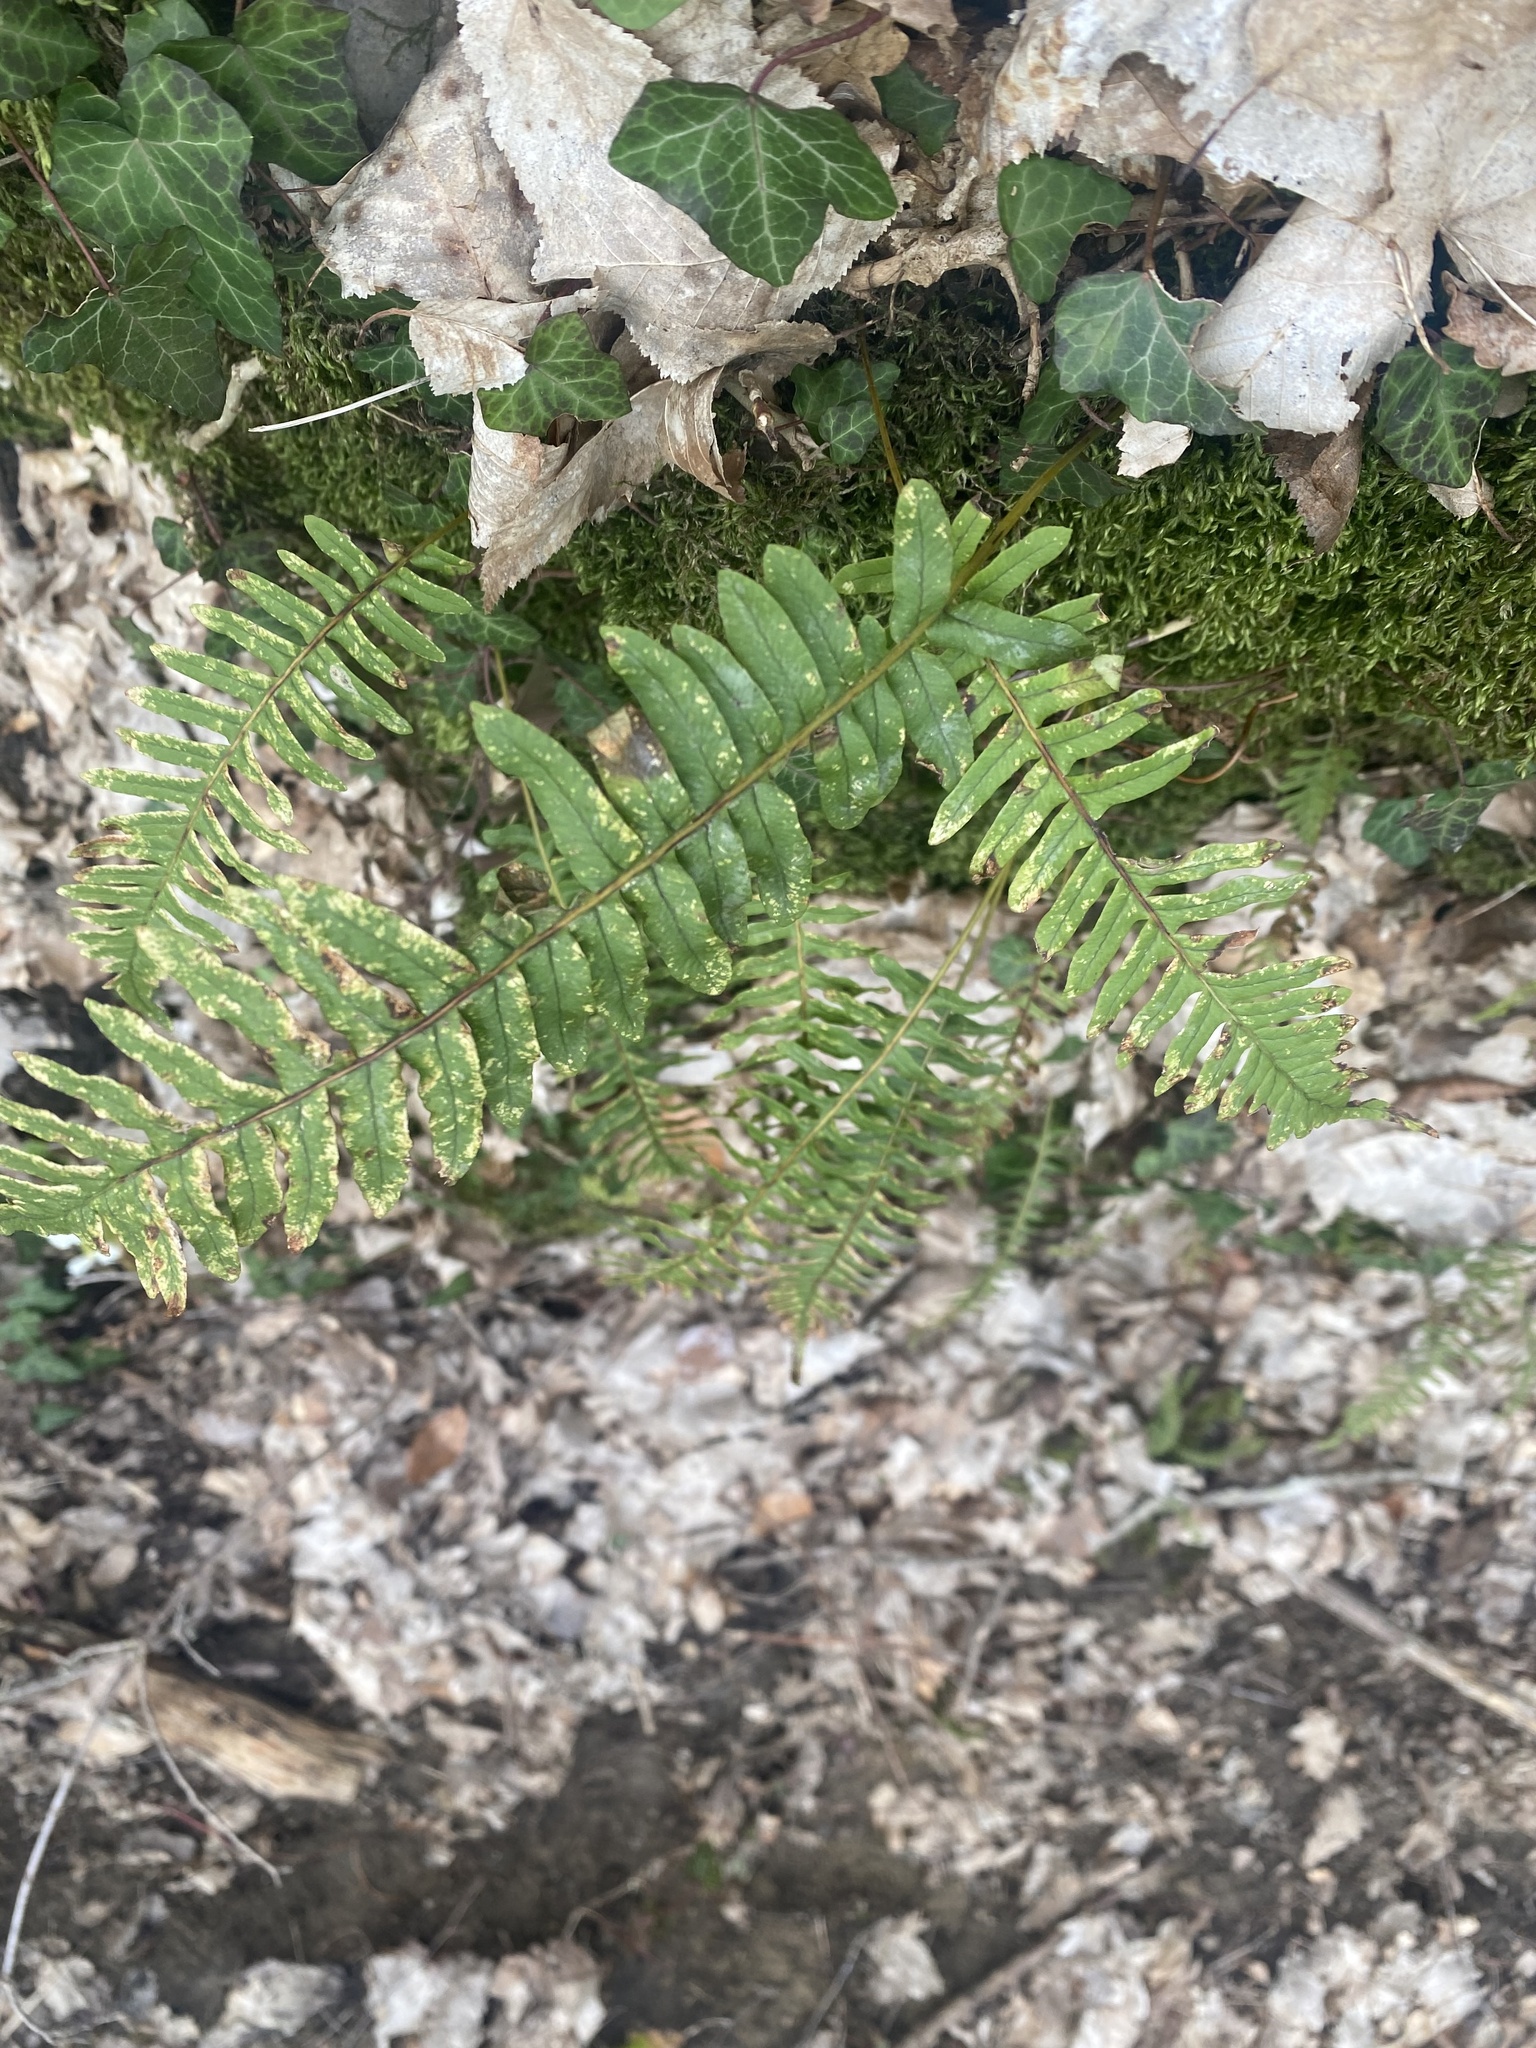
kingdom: Plantae
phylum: Tracheophyta
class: Polypodiopsida
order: Polypodiales
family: Polypodiaceae
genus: Polypodium
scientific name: Polypodium vulgare
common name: Common polypody
